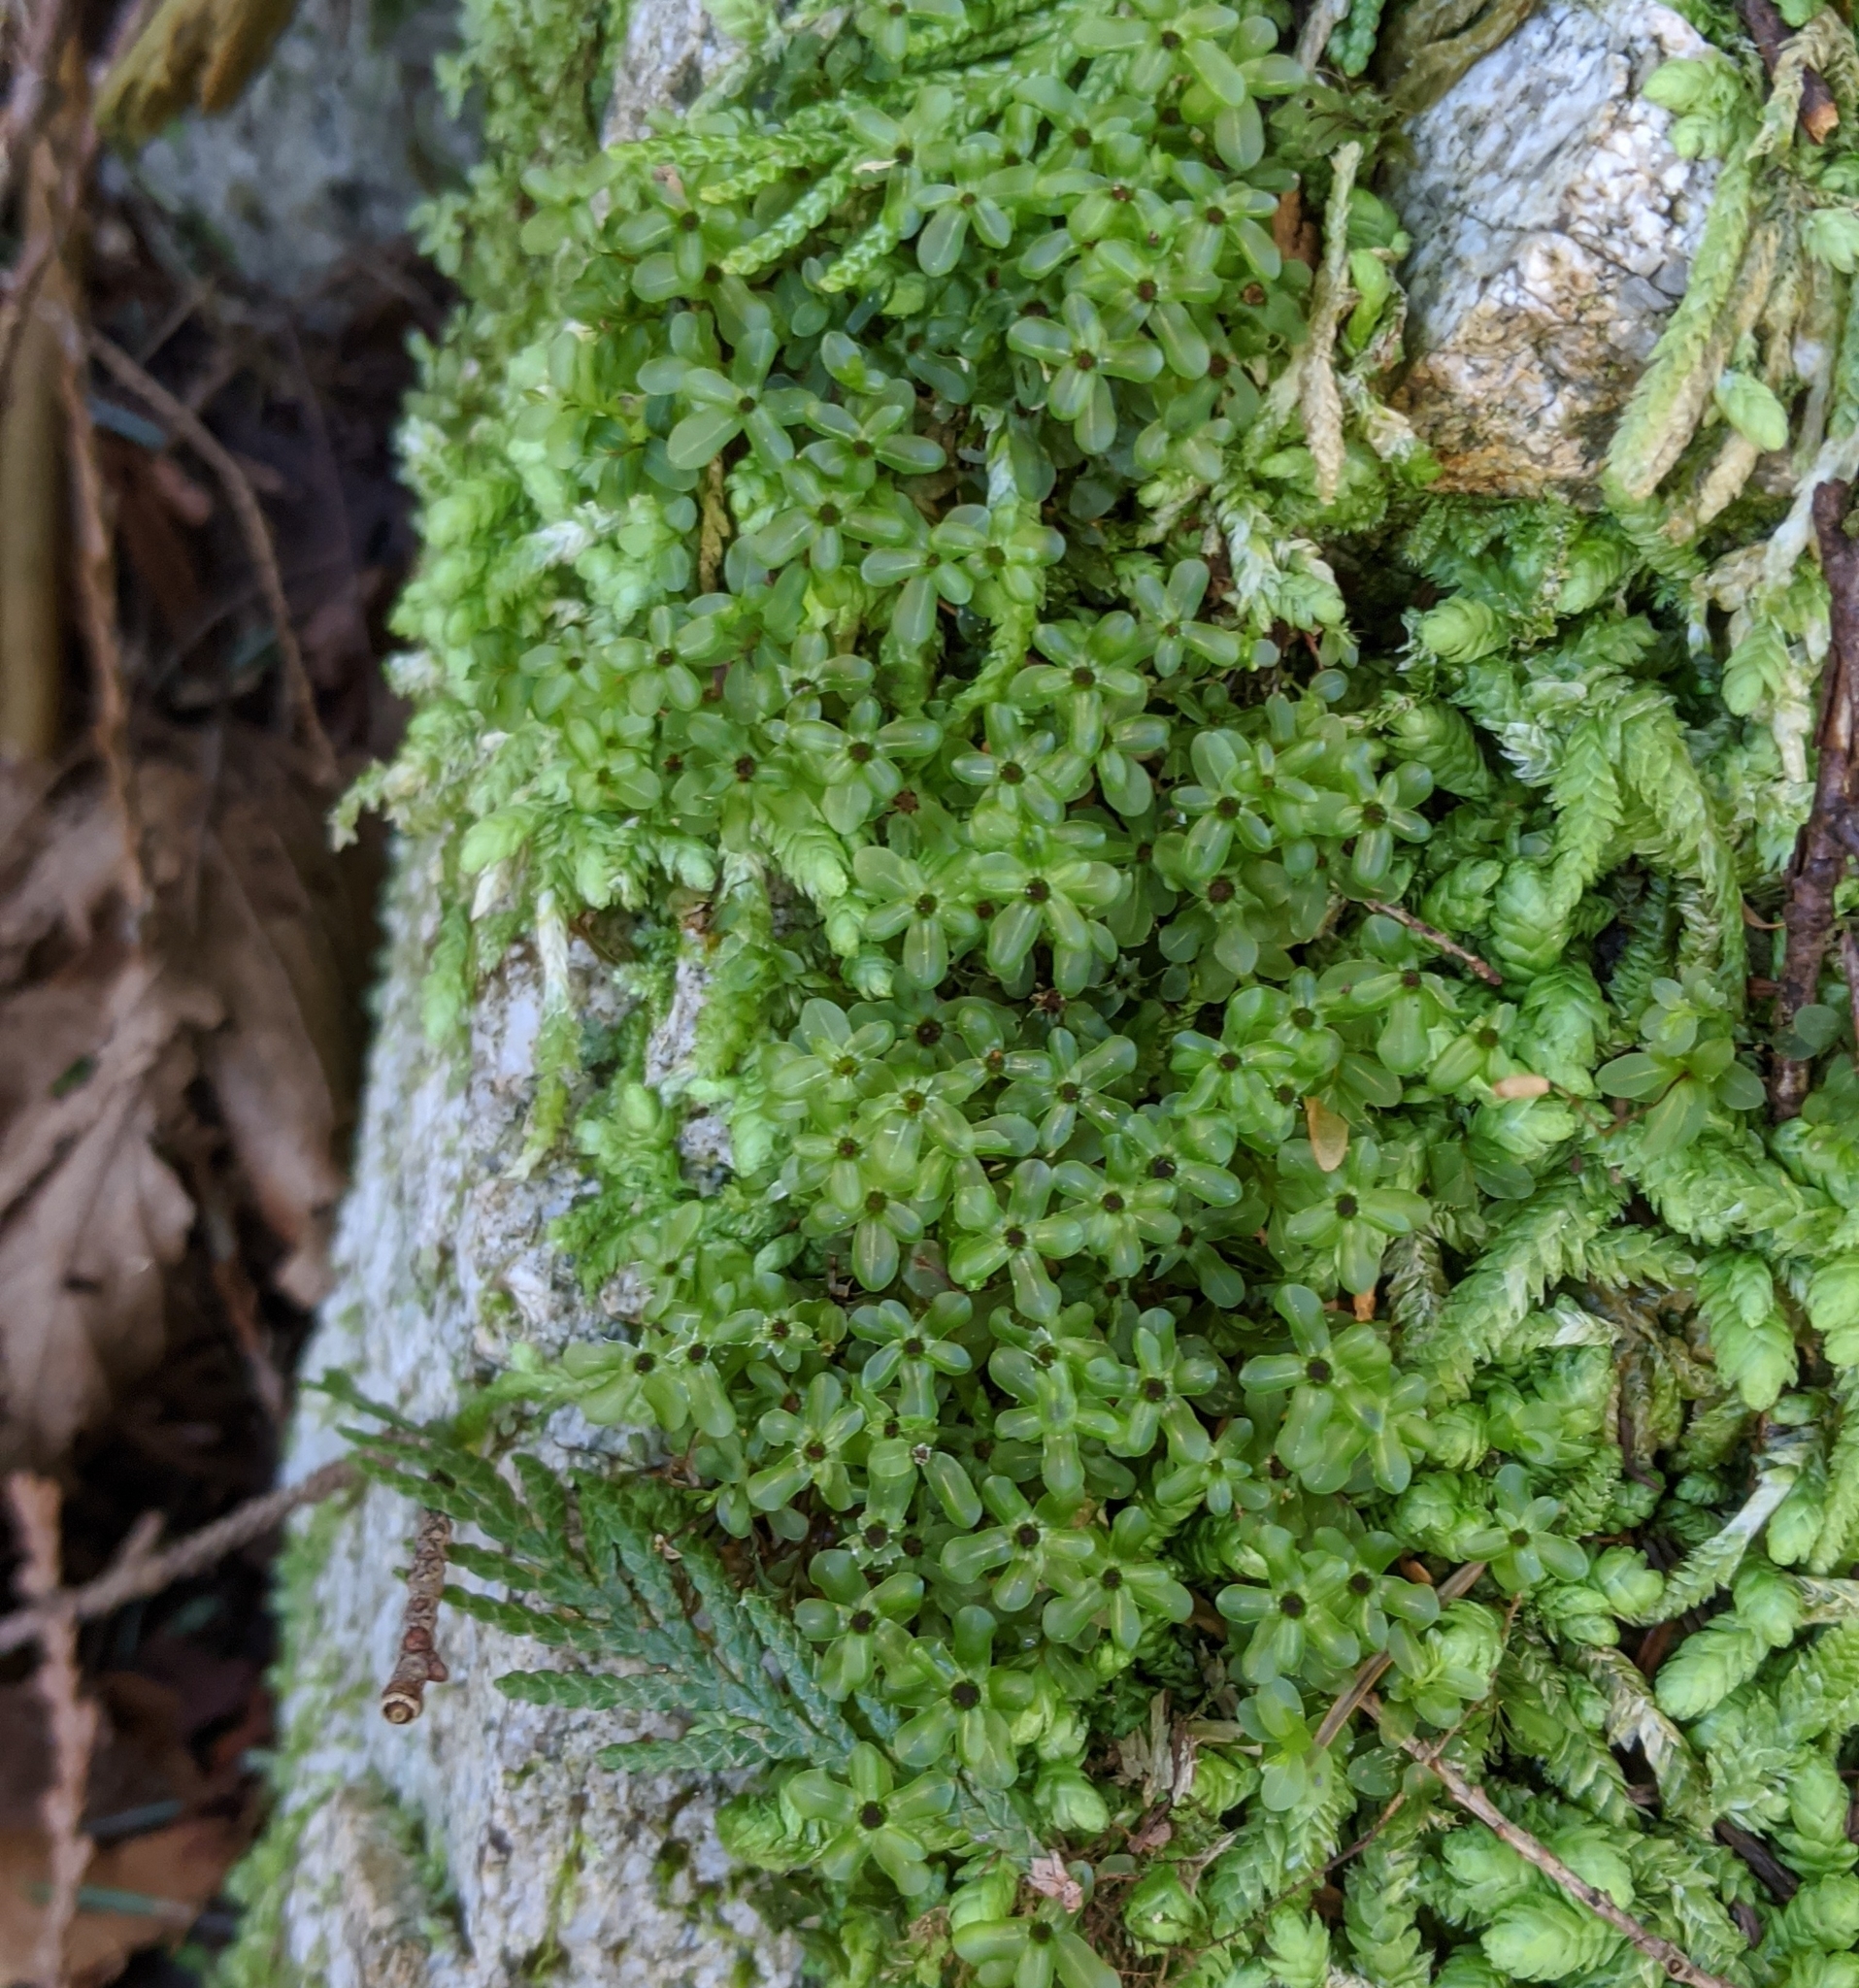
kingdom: Plantae
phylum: Bryophyta
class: Bryopsida
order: Bryales
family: Mniaceae
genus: Rhizomnium
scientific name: Rhizomnium glabrescens
